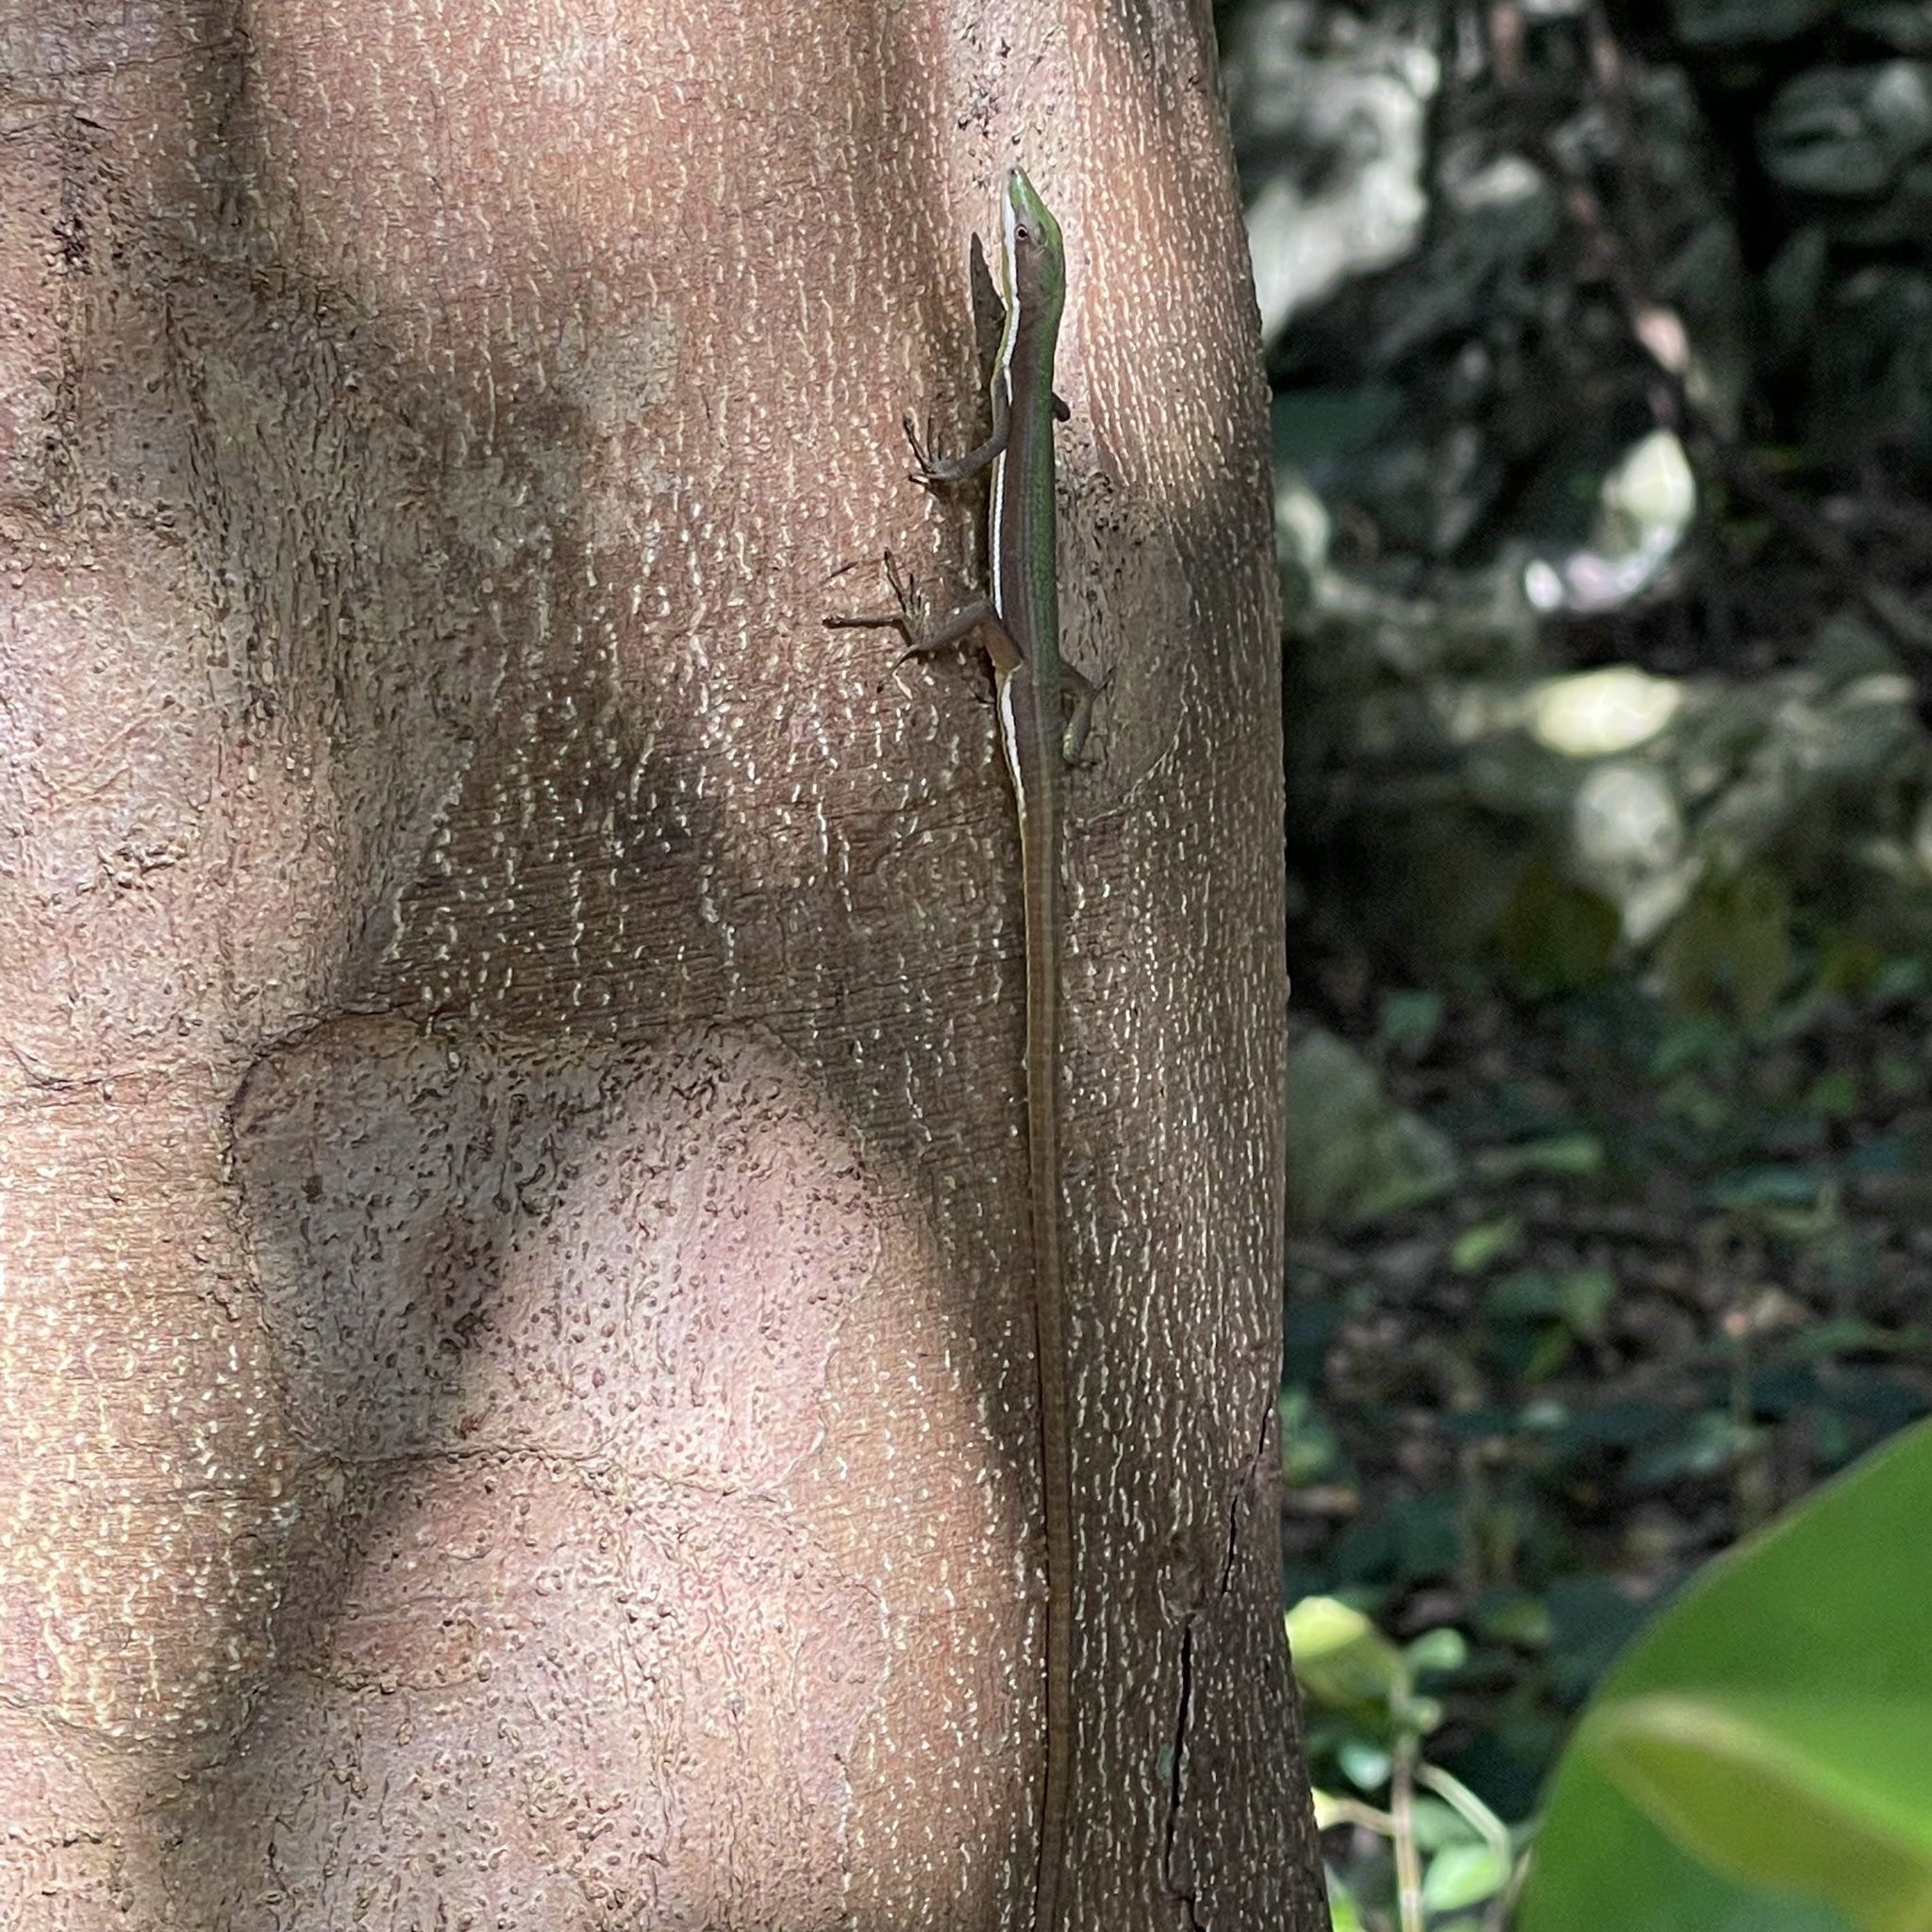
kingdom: Animalia
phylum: Chordata
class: Squamata
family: Lacertidae
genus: Takydromus
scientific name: Takydromus smaragdinus
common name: Green grass lizard
